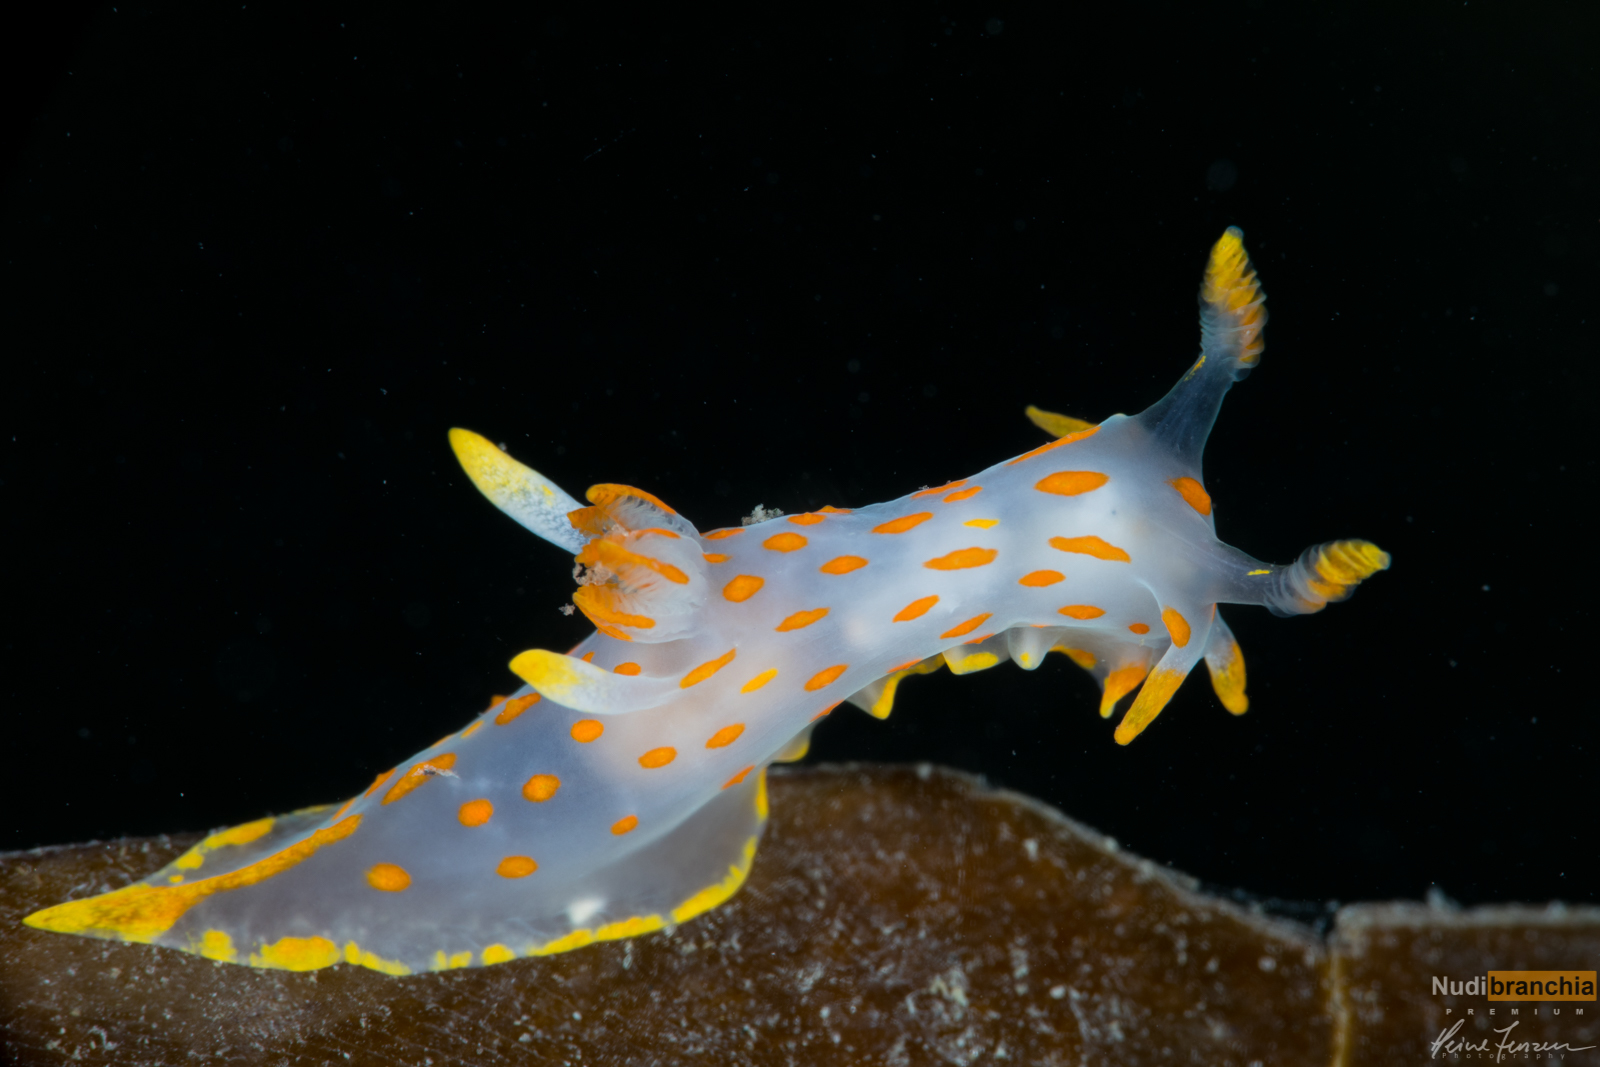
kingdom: Animalia
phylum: Mollusca
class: Gastropoda
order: Nudibranchia
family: Polyceridae
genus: Polycera
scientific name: Polycera quadrilineata
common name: Four-striped polycera
